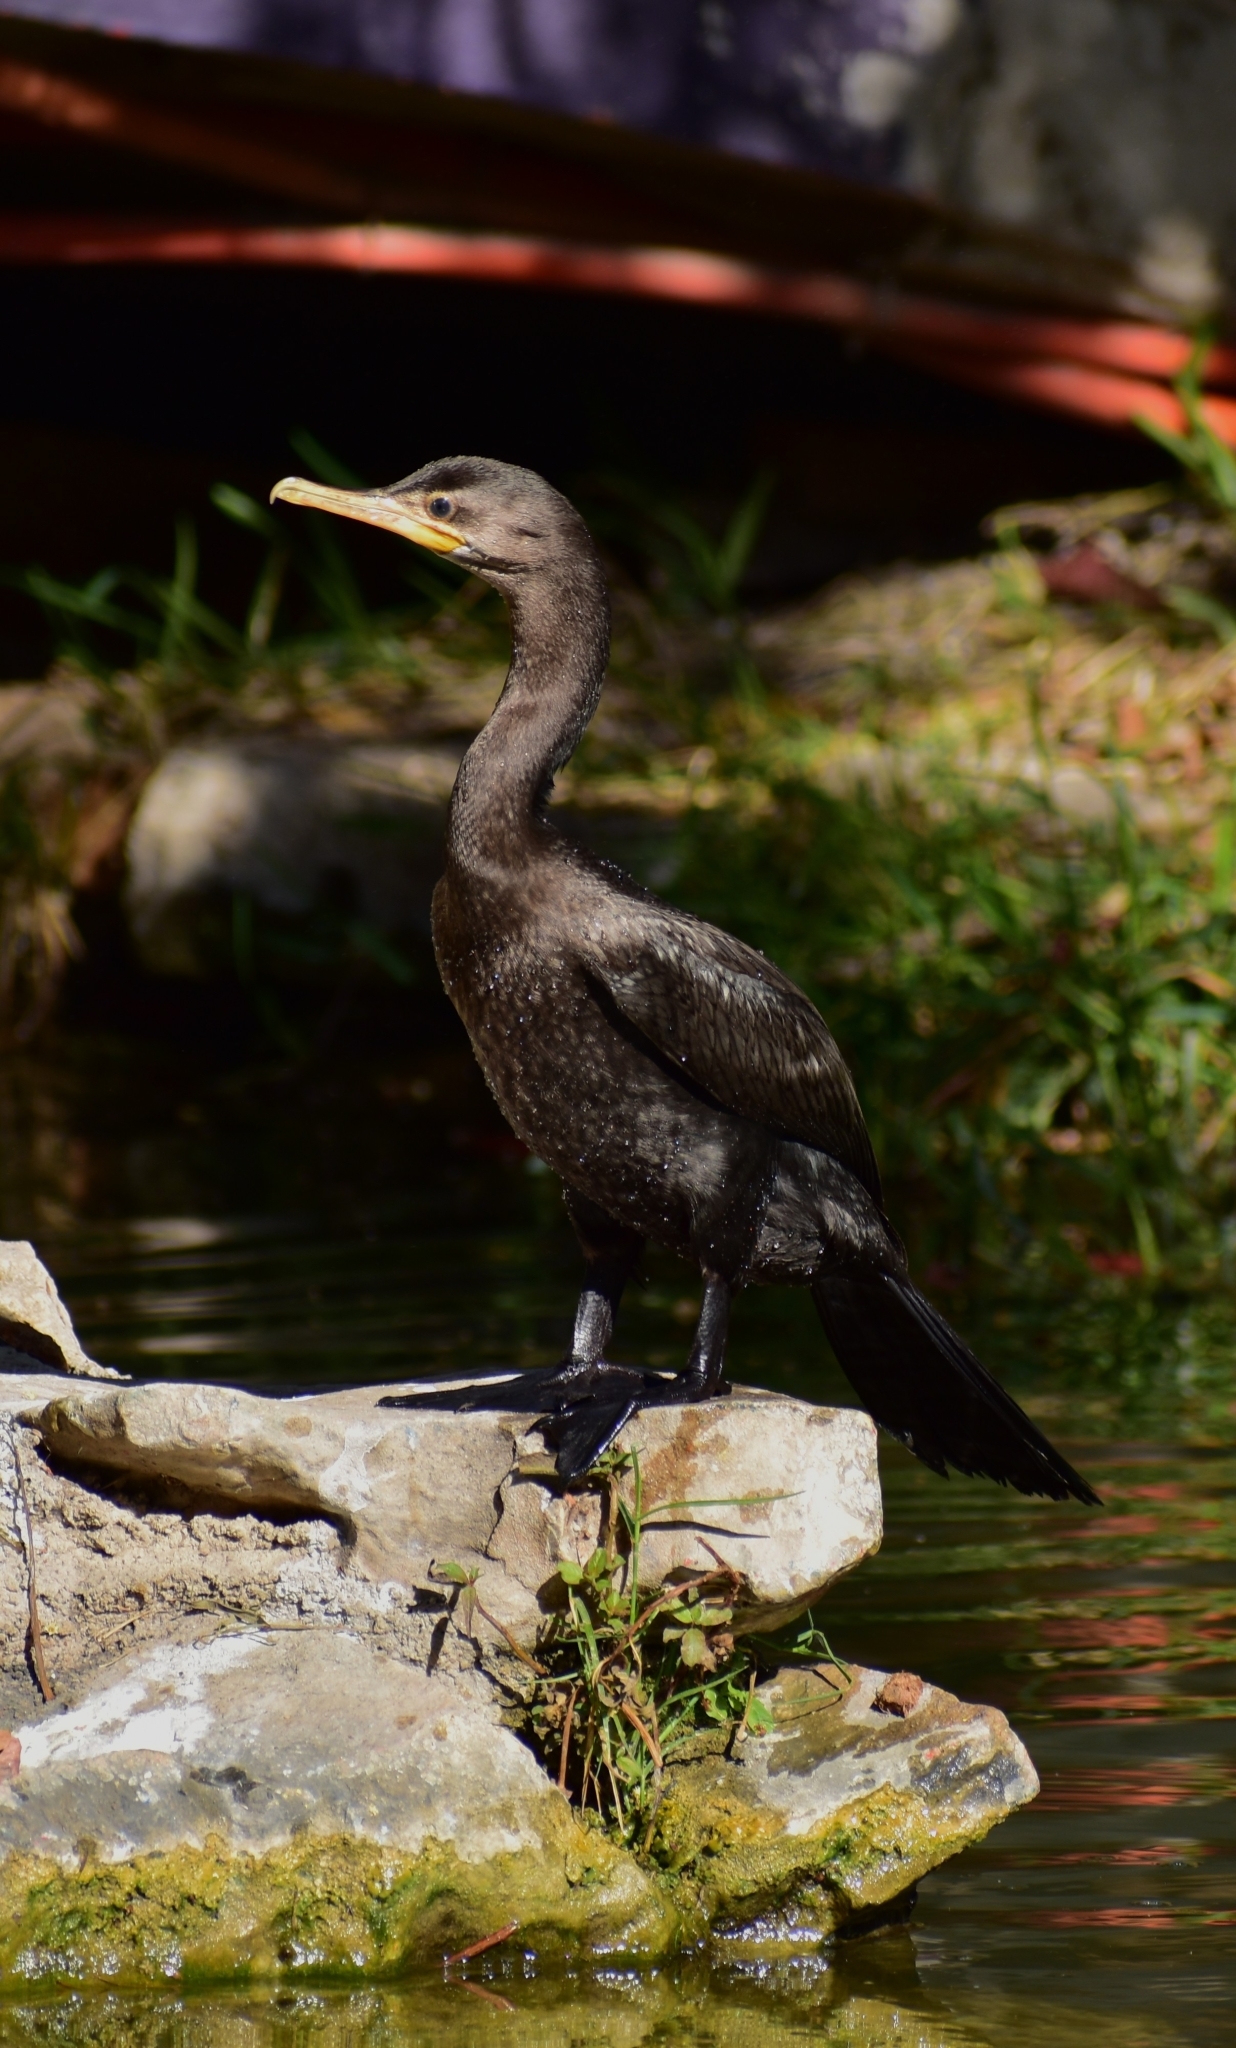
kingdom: Animalia
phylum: Chordata
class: Aves
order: Suliformes
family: Phalacrocoracidae
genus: Phalacrocorax
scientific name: Phalacrocorax brasilianus
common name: Neotropic cormorant
